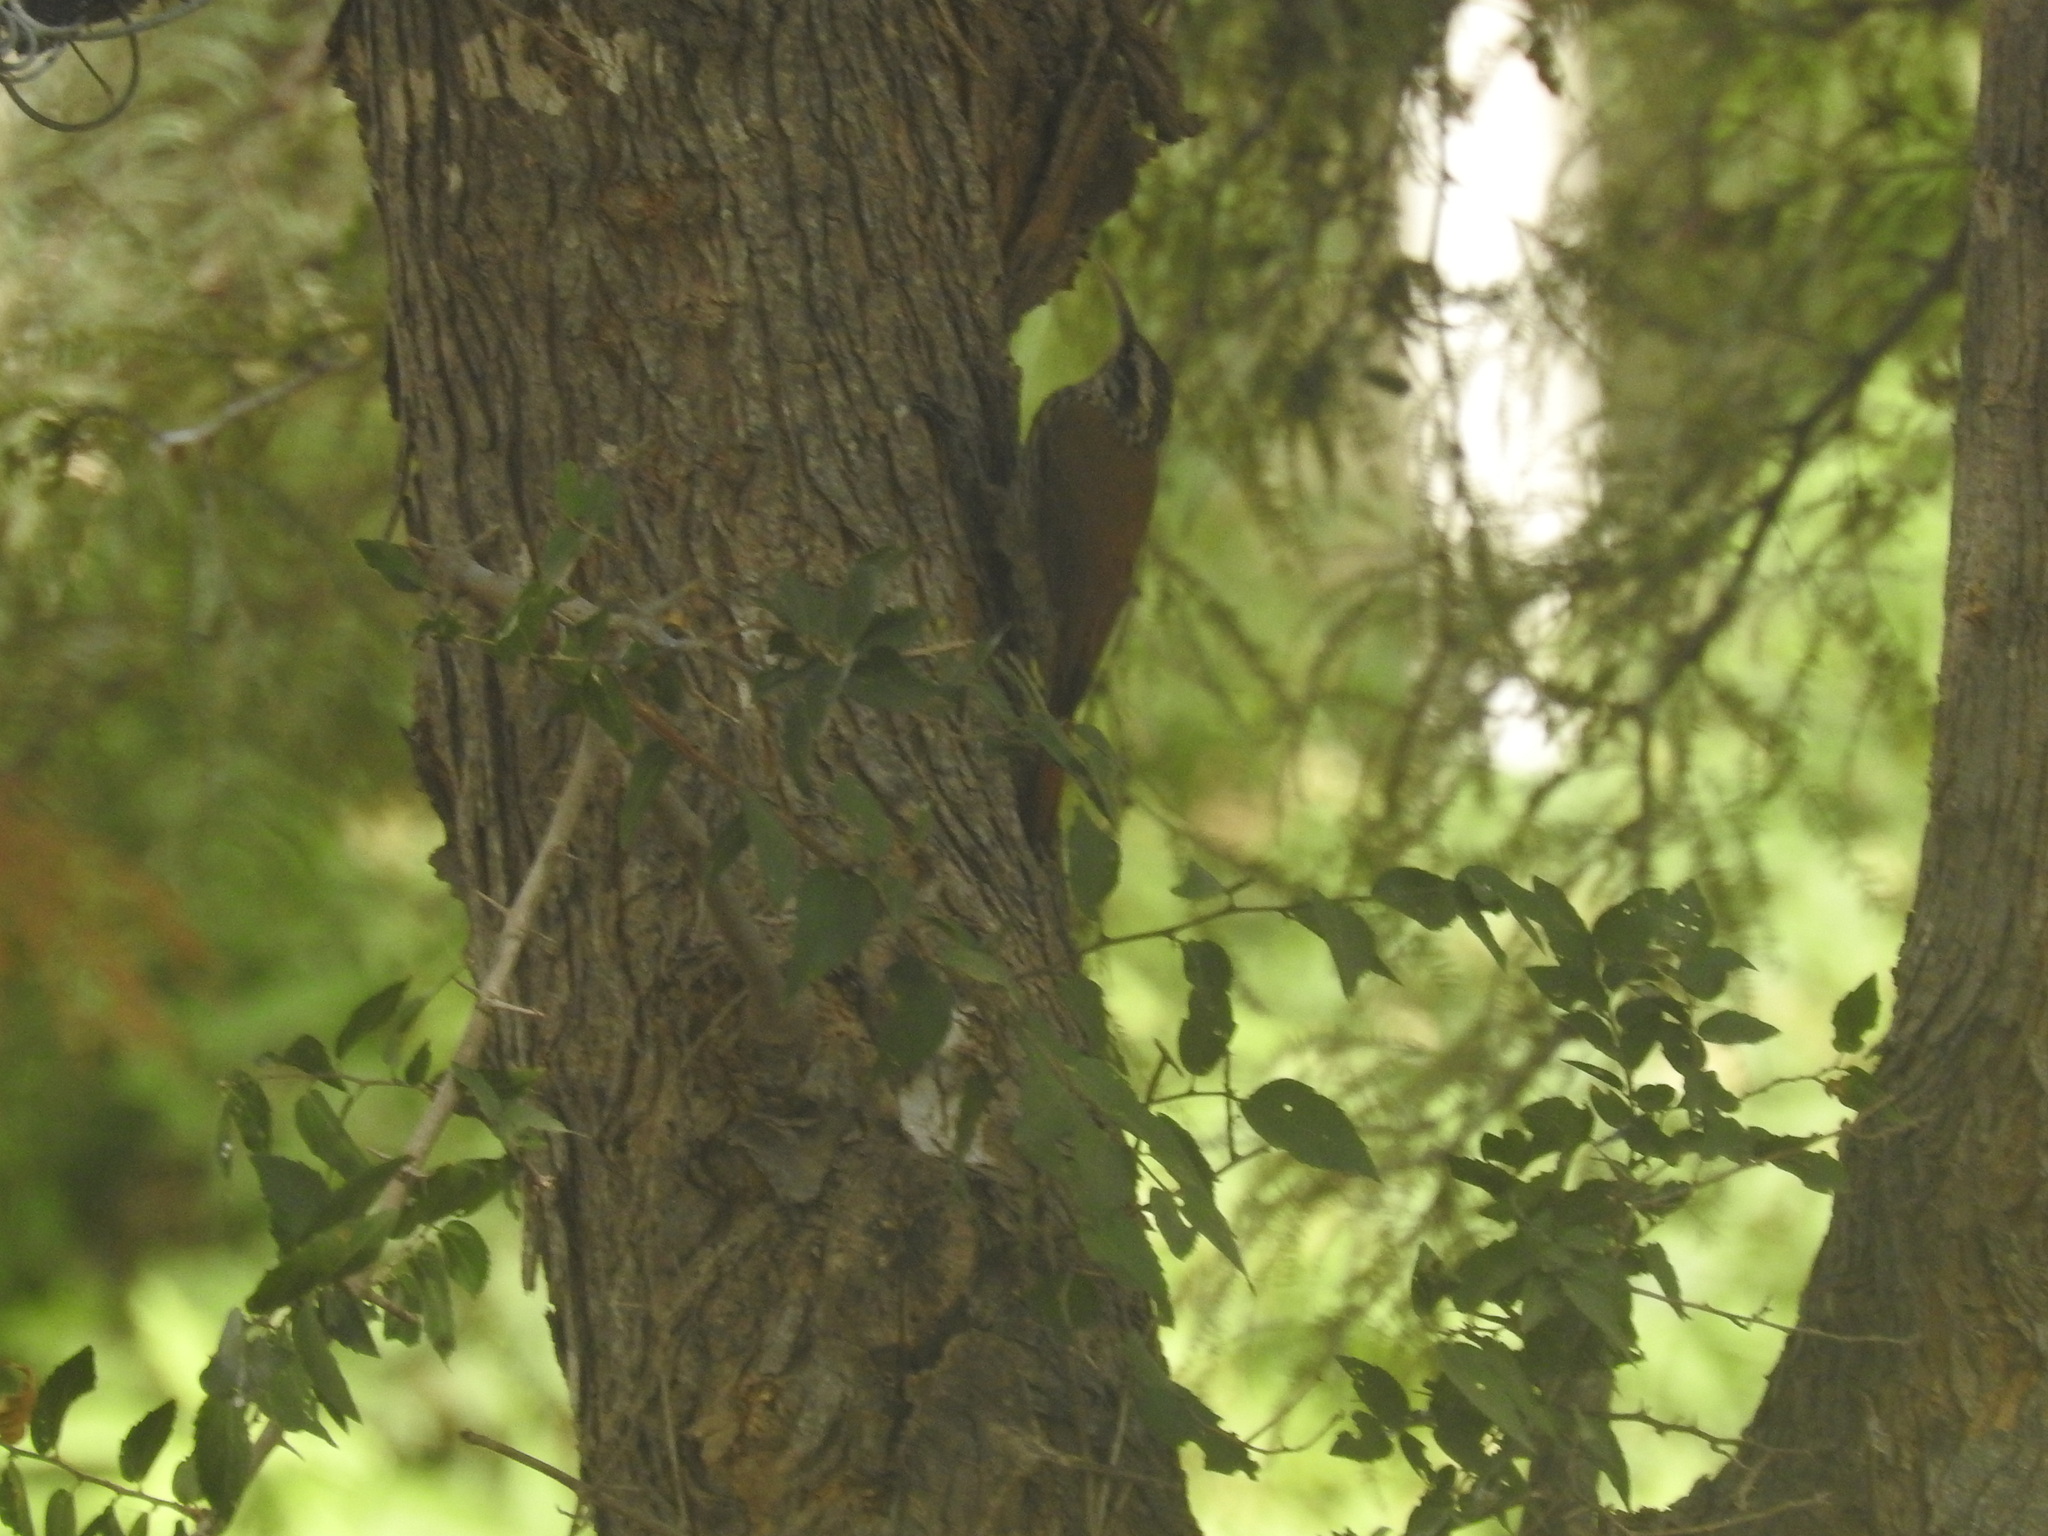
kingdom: Animalia
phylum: Chordata
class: Aves
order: Passeriformes
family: Furnariidae
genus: Lepidocolaptes
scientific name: Lepidocolaptes angustirostris
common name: Narrow-billed woodcreeper
